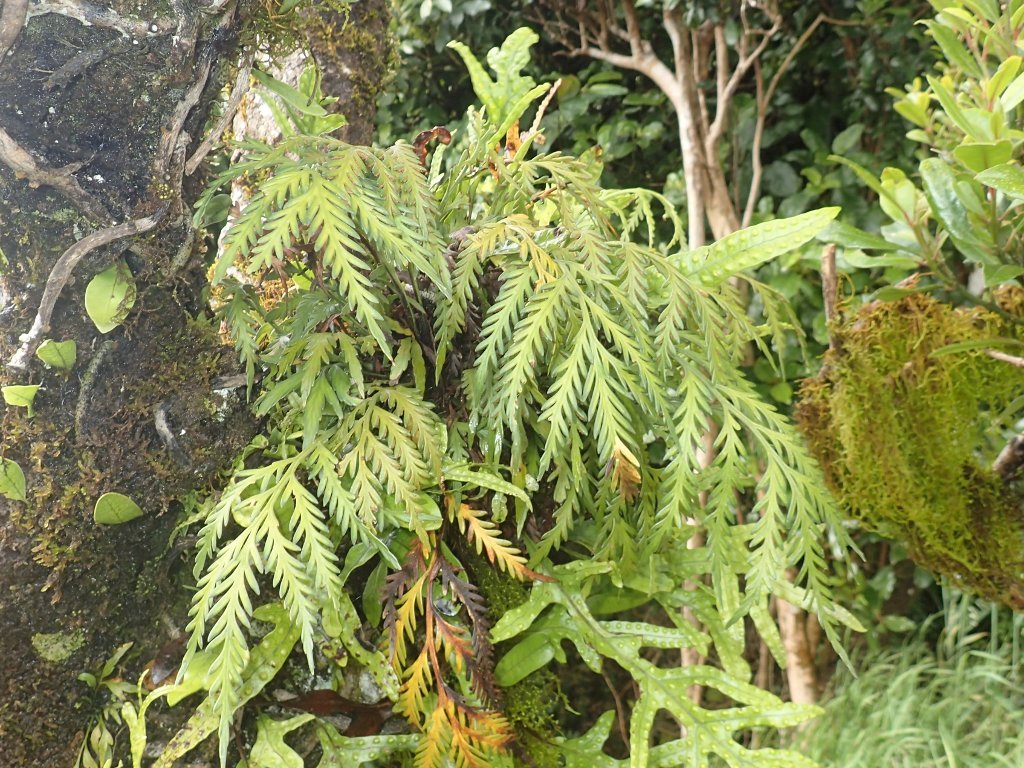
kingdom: Plantae
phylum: Tracheophyta
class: Polypodiopsida
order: Polypodiales
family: Aspleniaceae
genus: Asplenium
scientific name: Asplenium flaccidum
